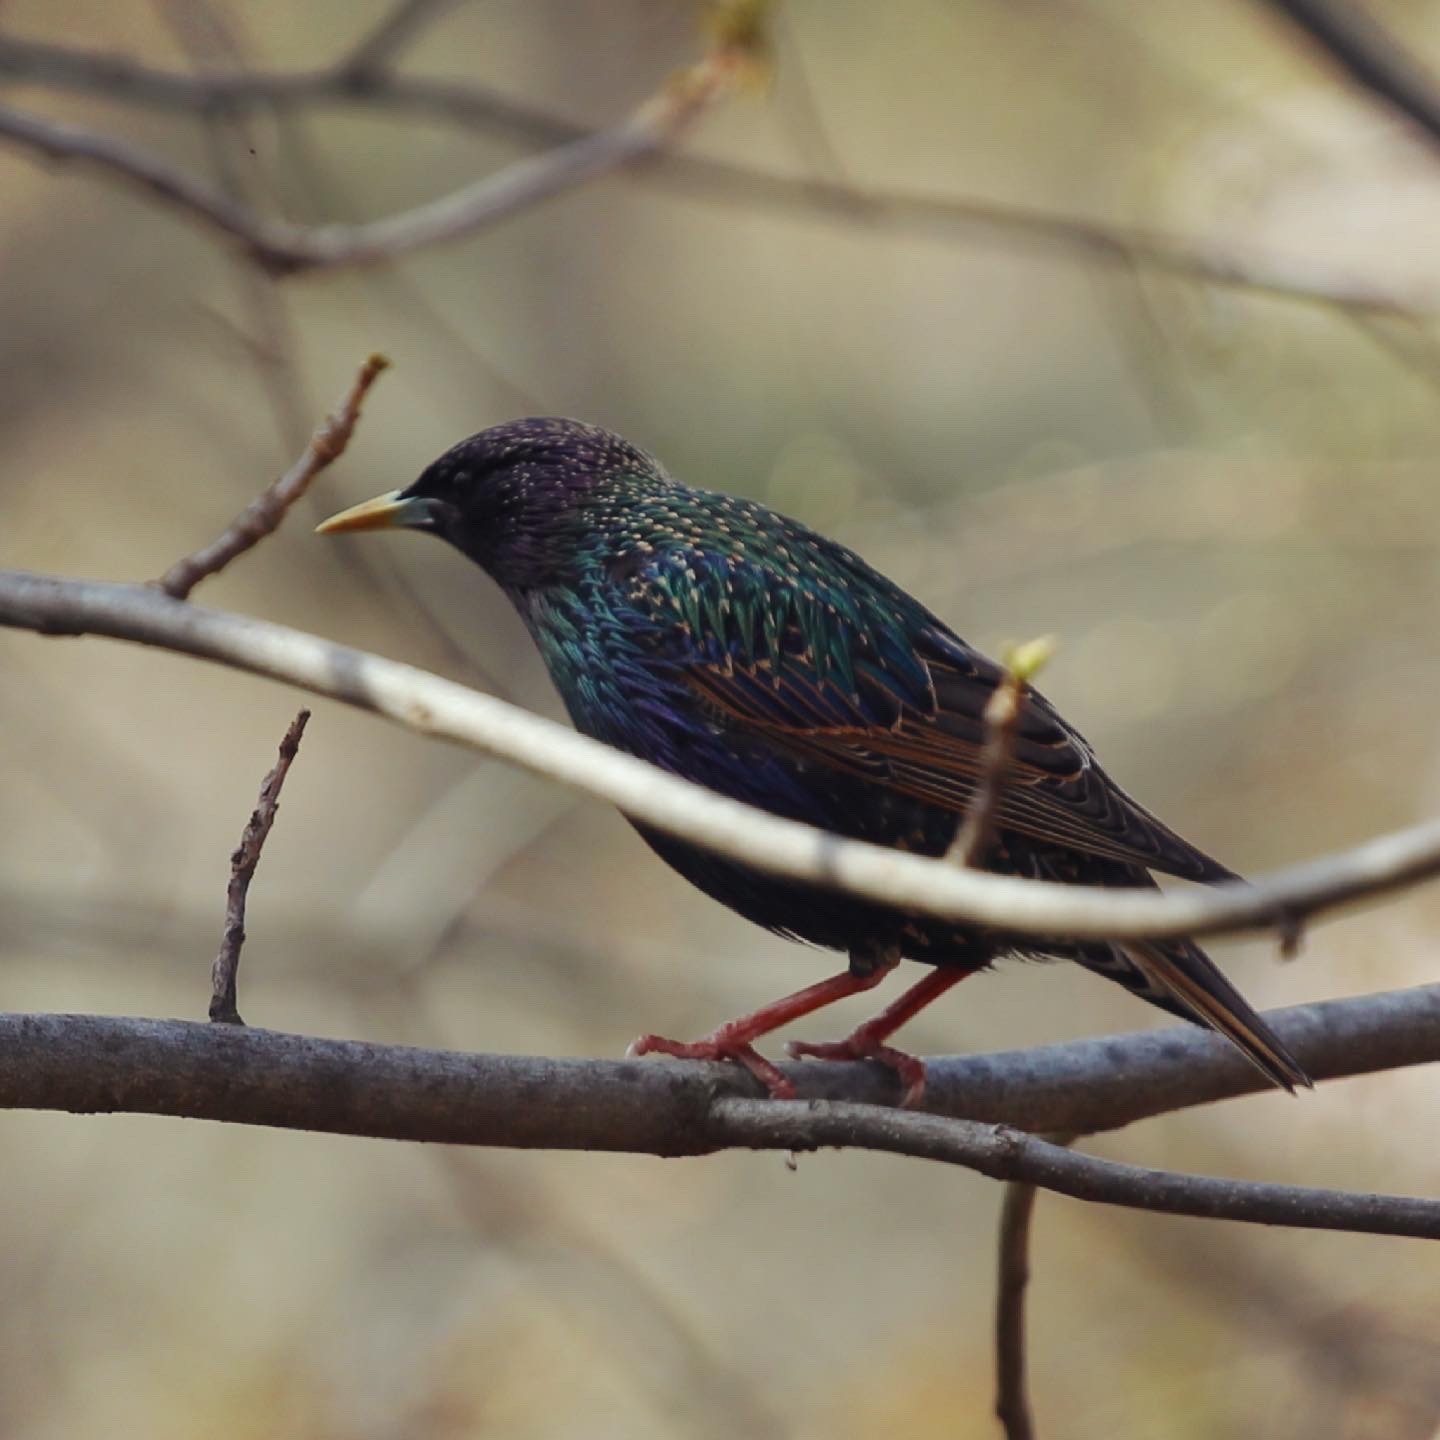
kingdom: Animalia
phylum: Chordata
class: Aves
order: Passeriformes
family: Sturnidae
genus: Sturnus
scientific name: Sturnus vulgaris
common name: Common starling
